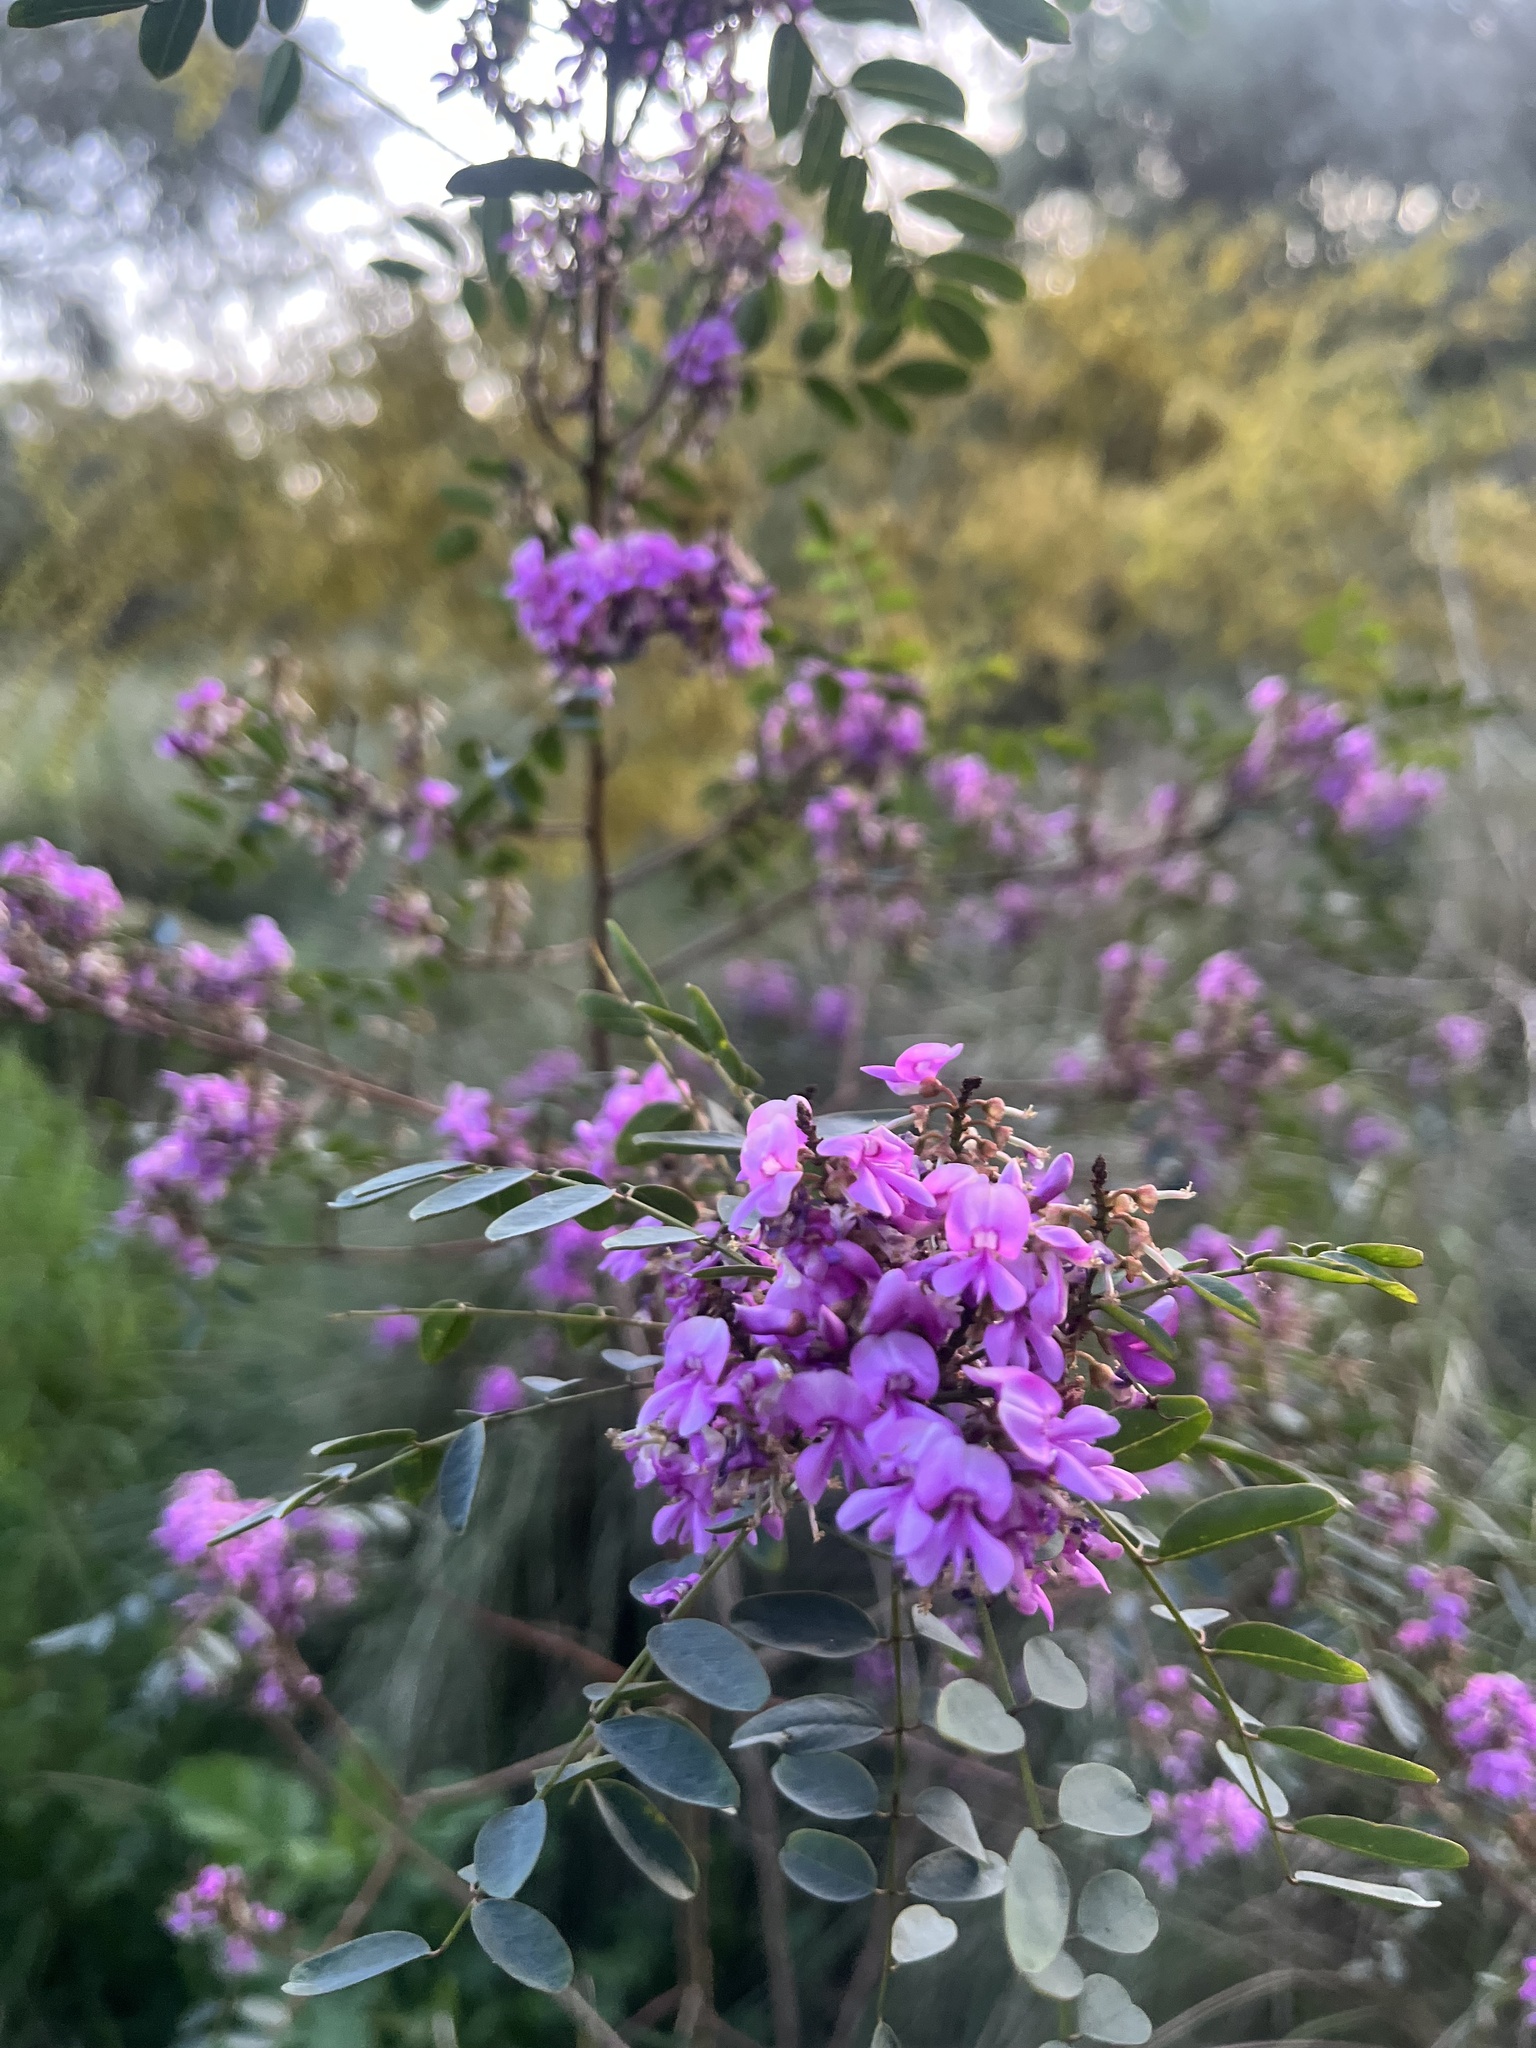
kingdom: Plantae
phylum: Tracheophyta
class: Magnoliopsida
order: Fabales
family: Fabaceae
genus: Indigofera
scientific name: Indigofera australis
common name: Australian indigo
